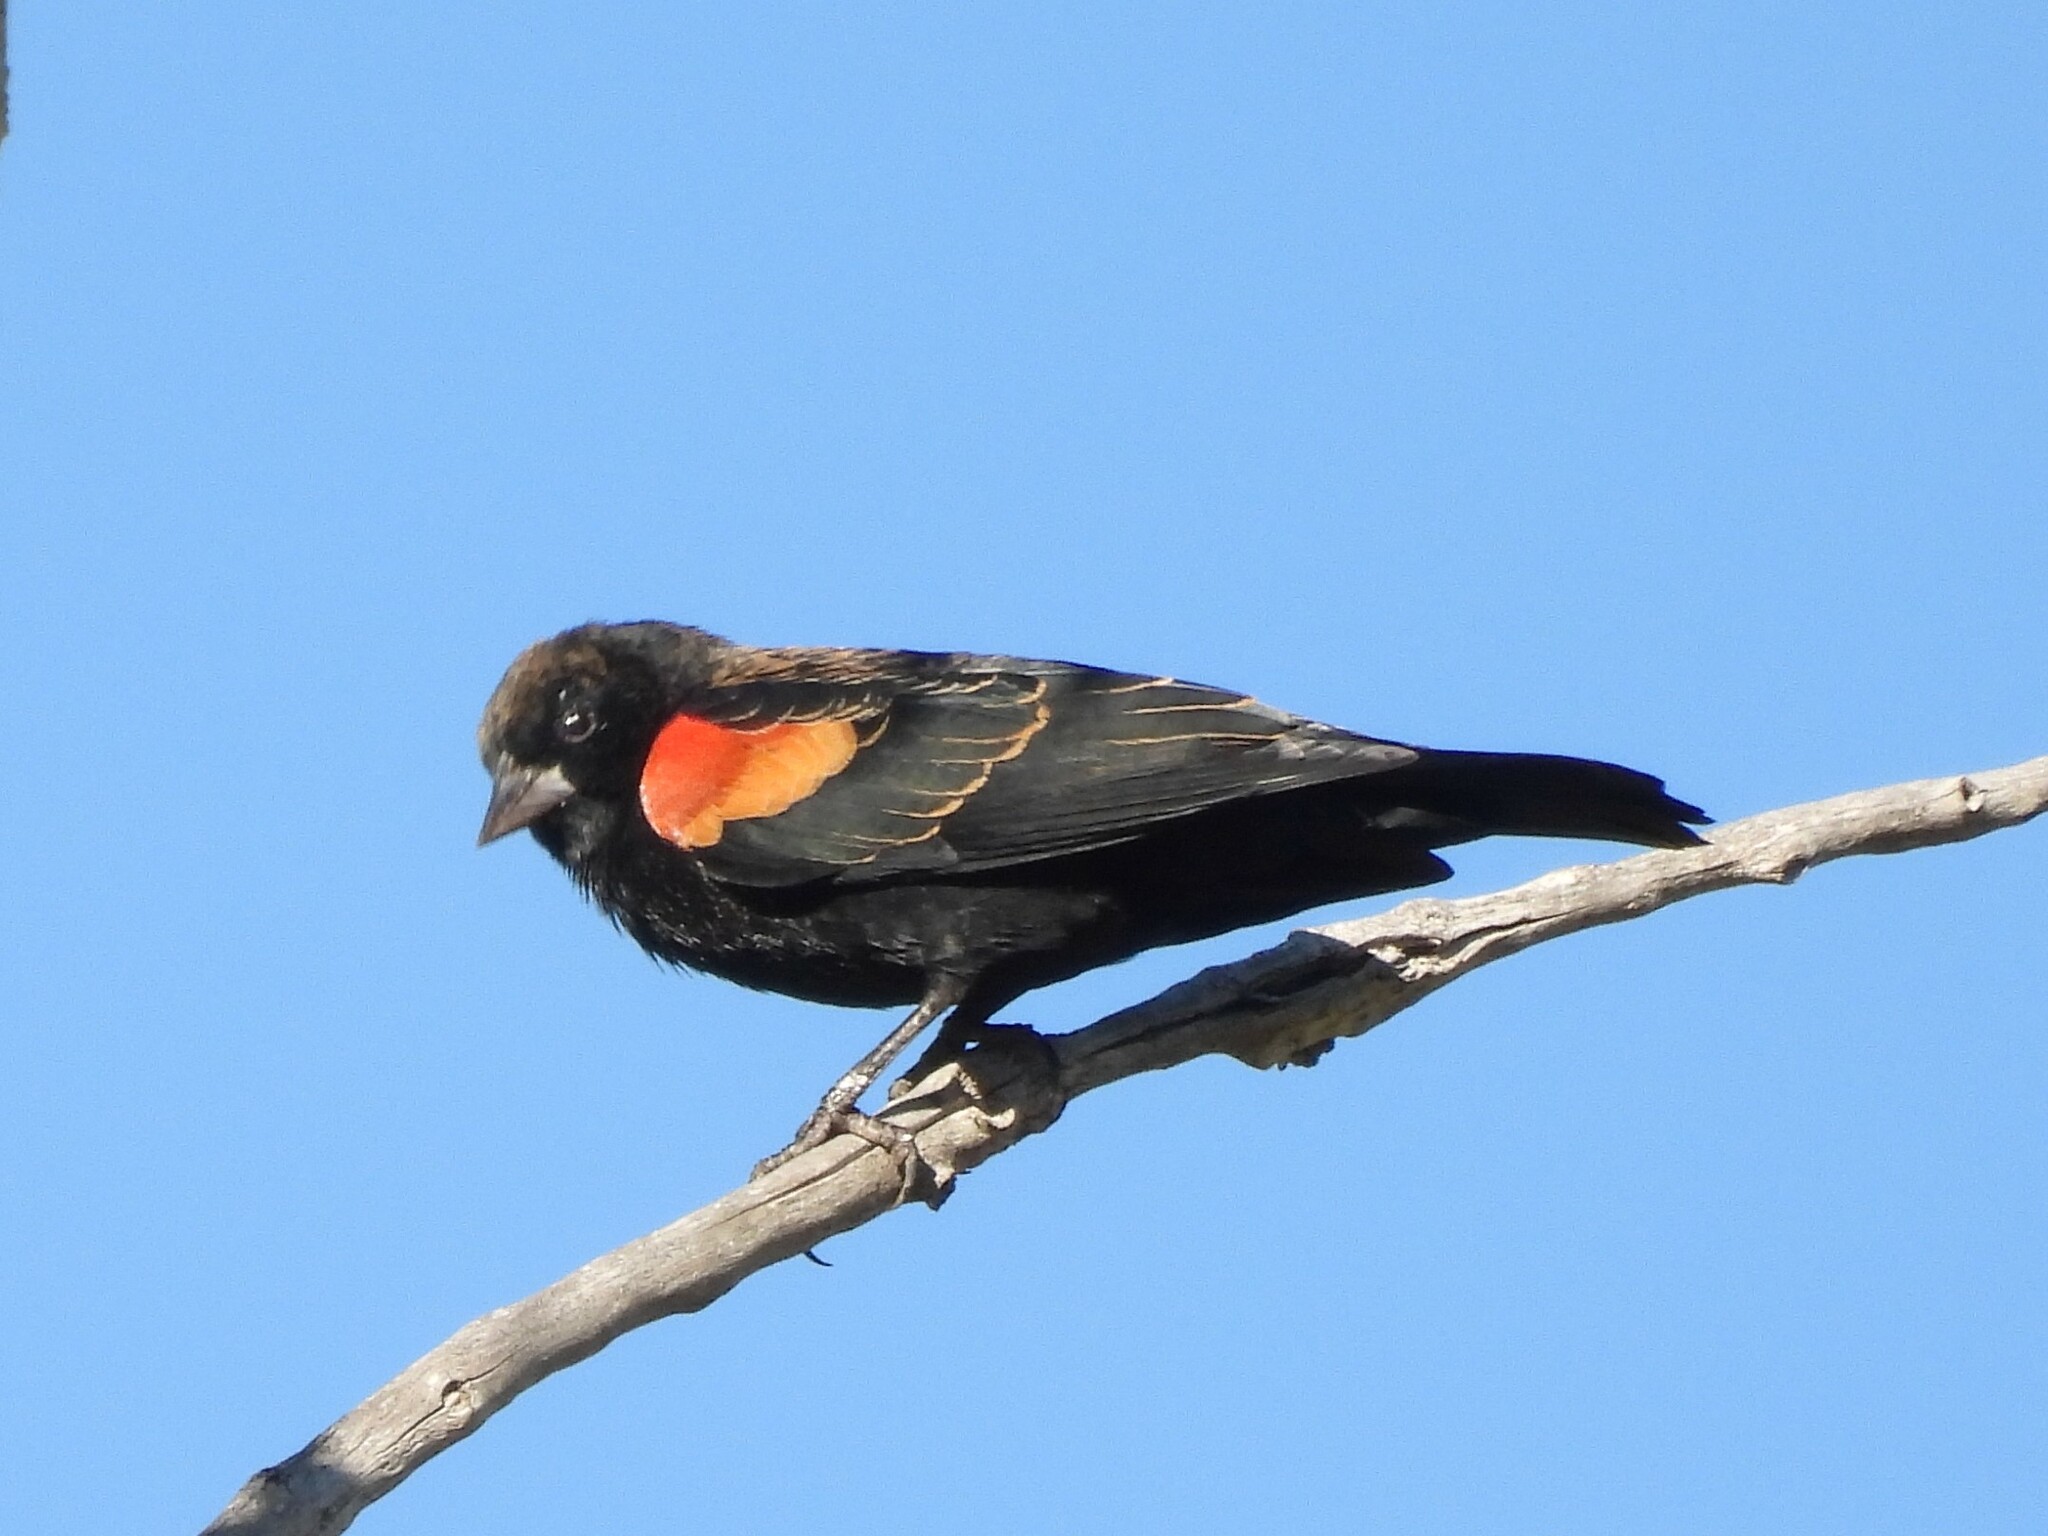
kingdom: Animalia
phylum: Chordata
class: Aves
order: Passeriformes
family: Icteridae
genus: Agelaius
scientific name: Agelaius phoeniceus
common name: Red-winged blackbird
